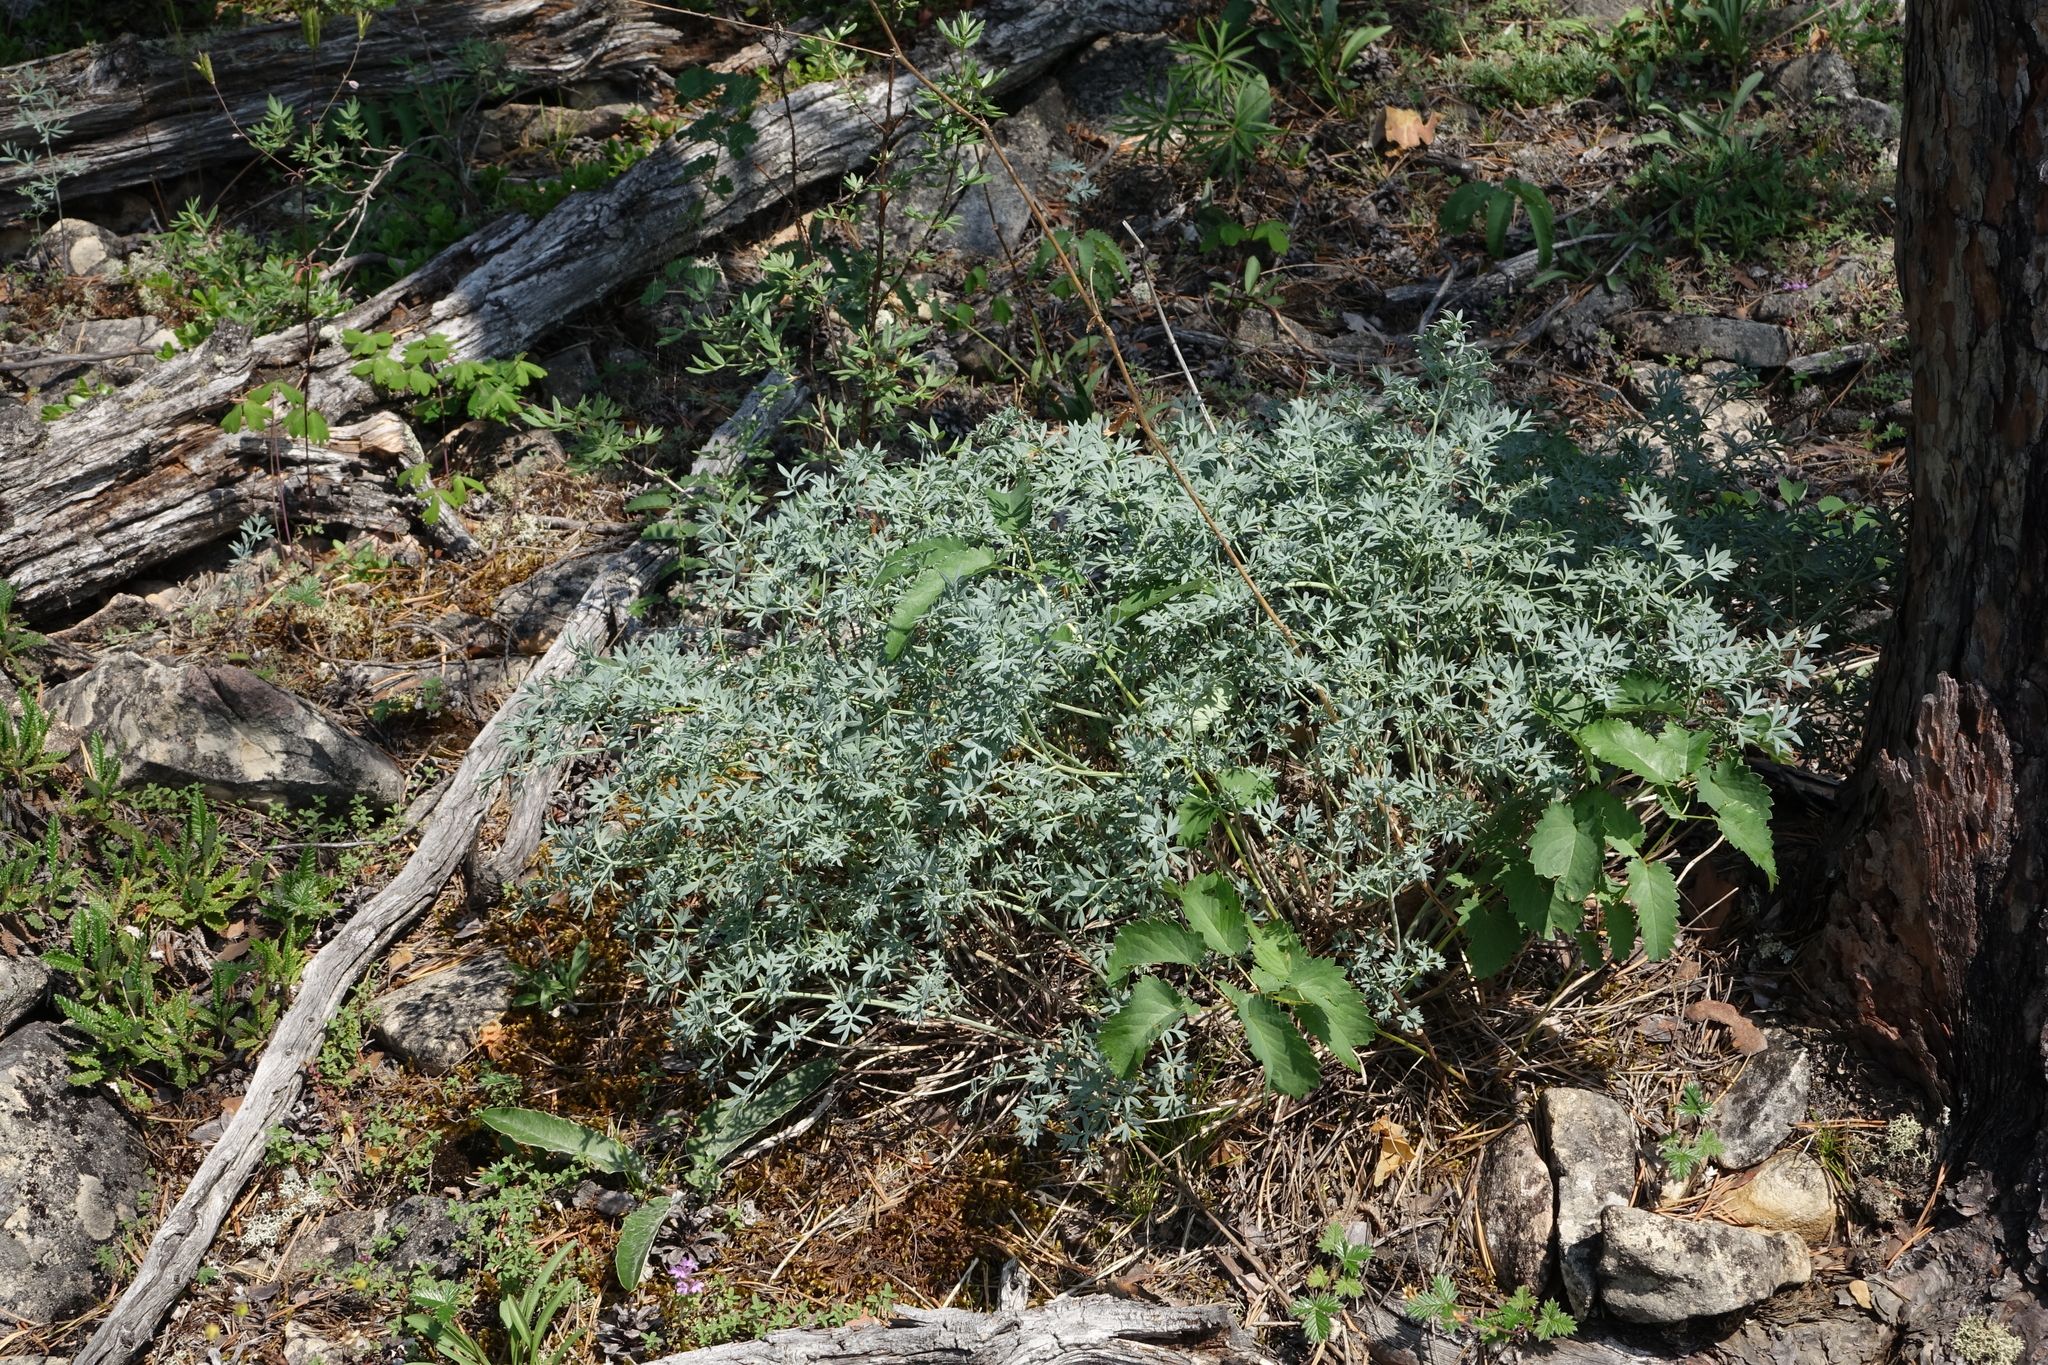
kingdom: Plantae
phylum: Tracheophyta
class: Magnoliopsida
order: Apiales
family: Apiaceae
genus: Phlojodicarpus
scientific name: Phlojodicarpus sibiricus
